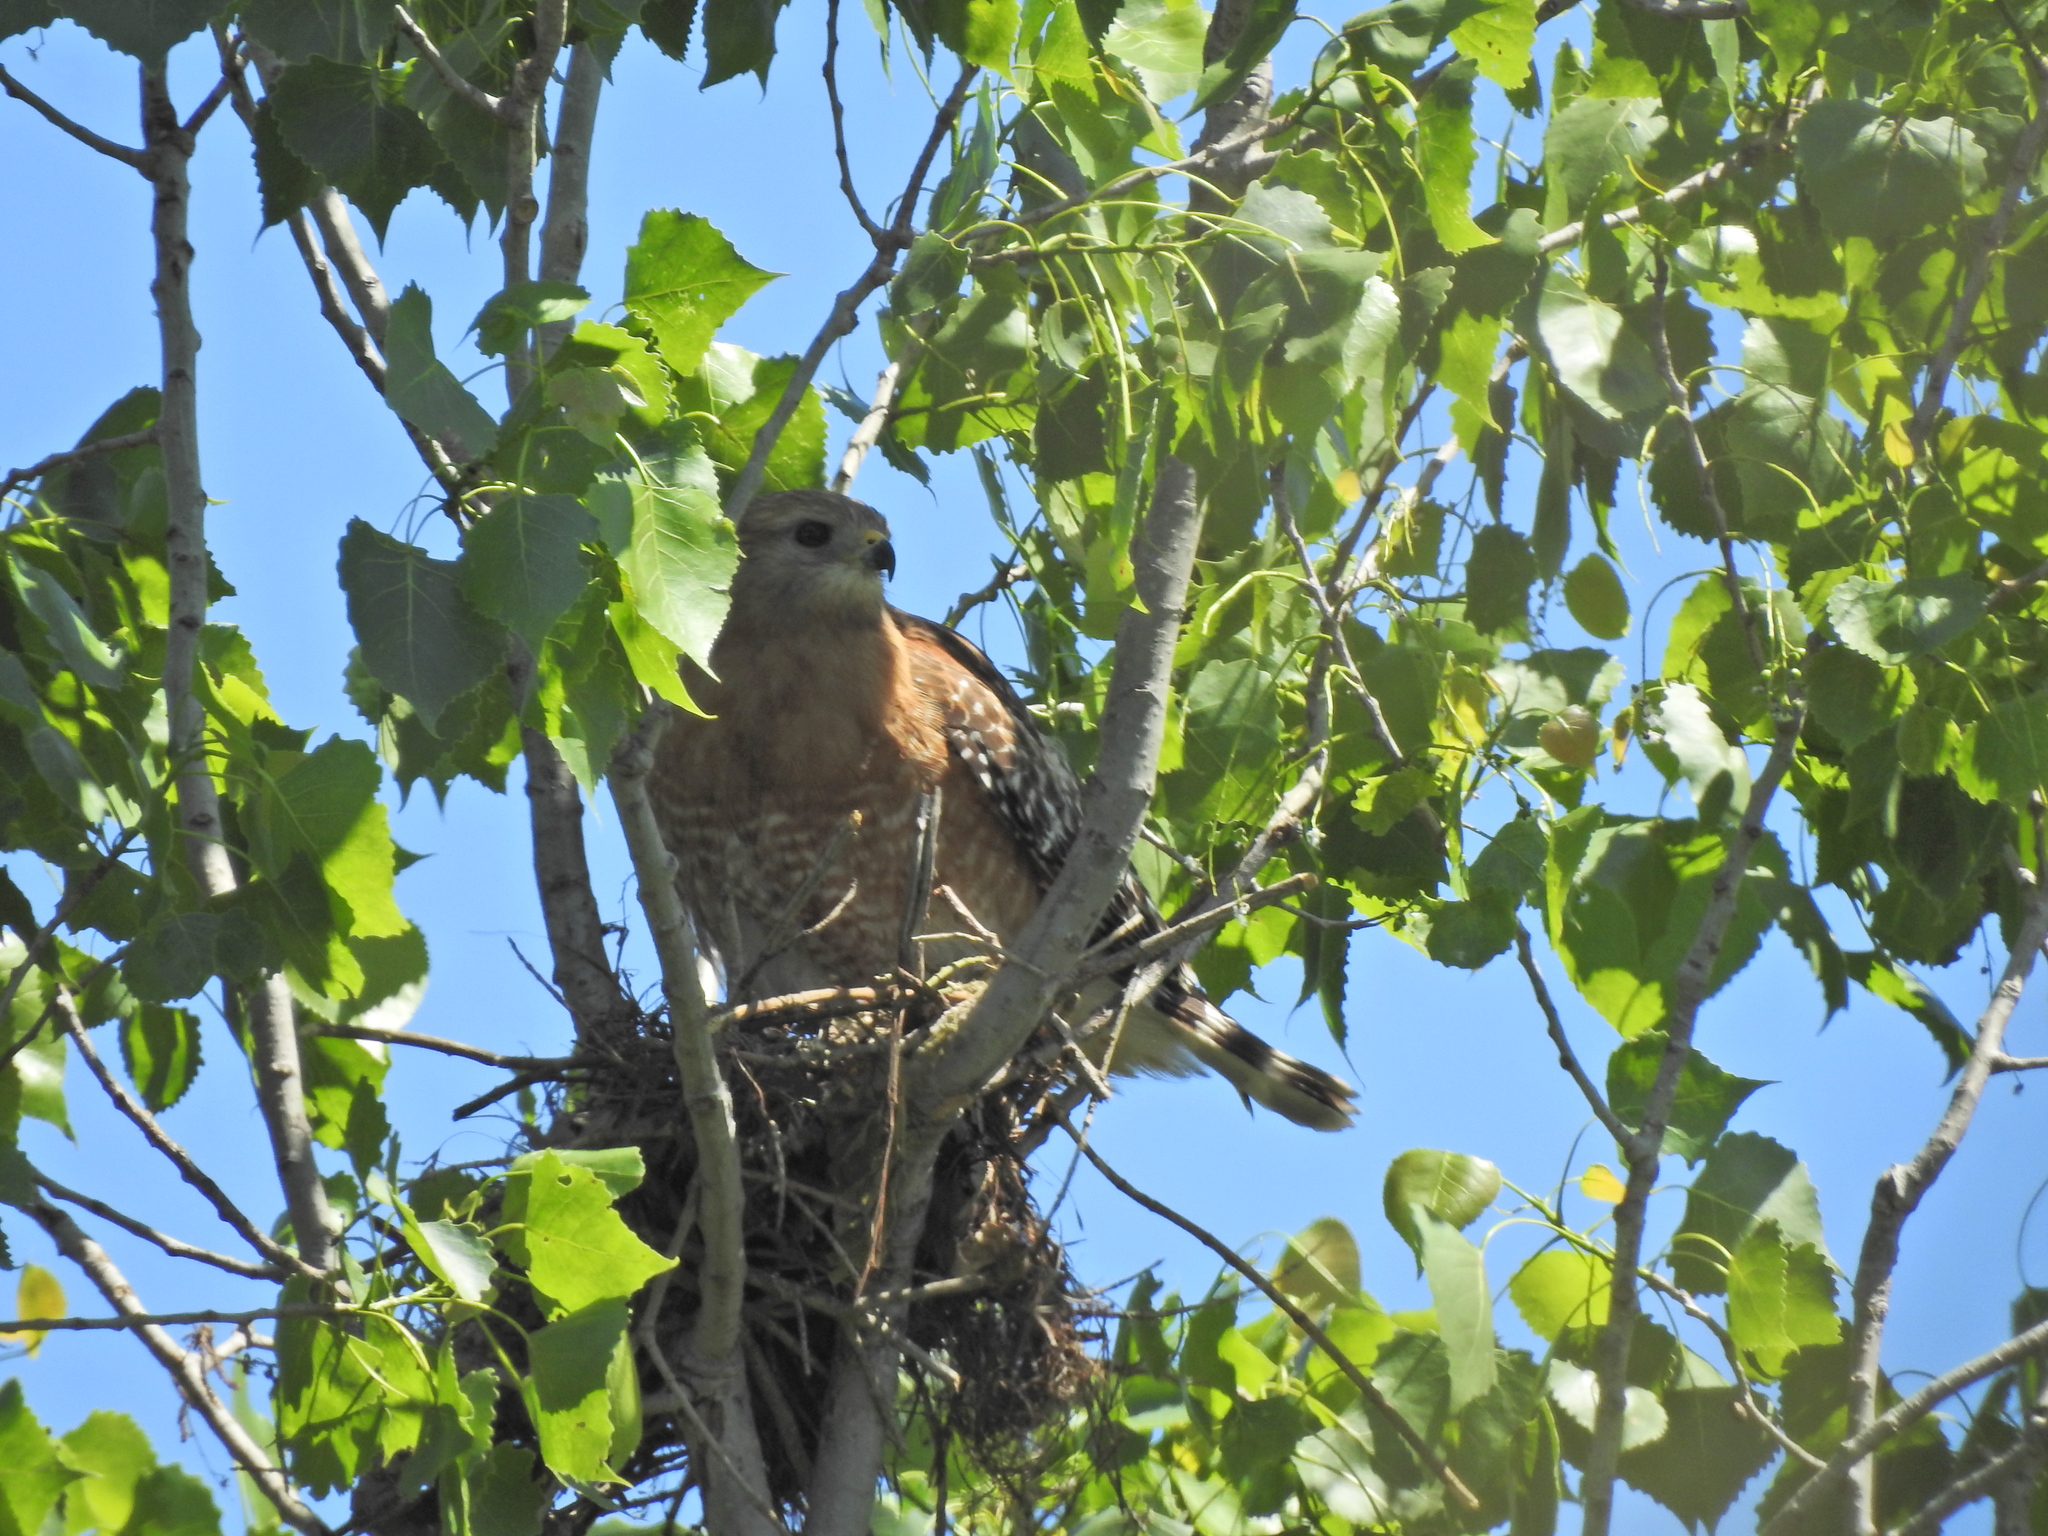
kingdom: Animalia
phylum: Chordata
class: Aves
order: Accipitriformes
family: Accipitridae
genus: Buteo
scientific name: Buteo lineatus
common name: Red-shouldered hawk
